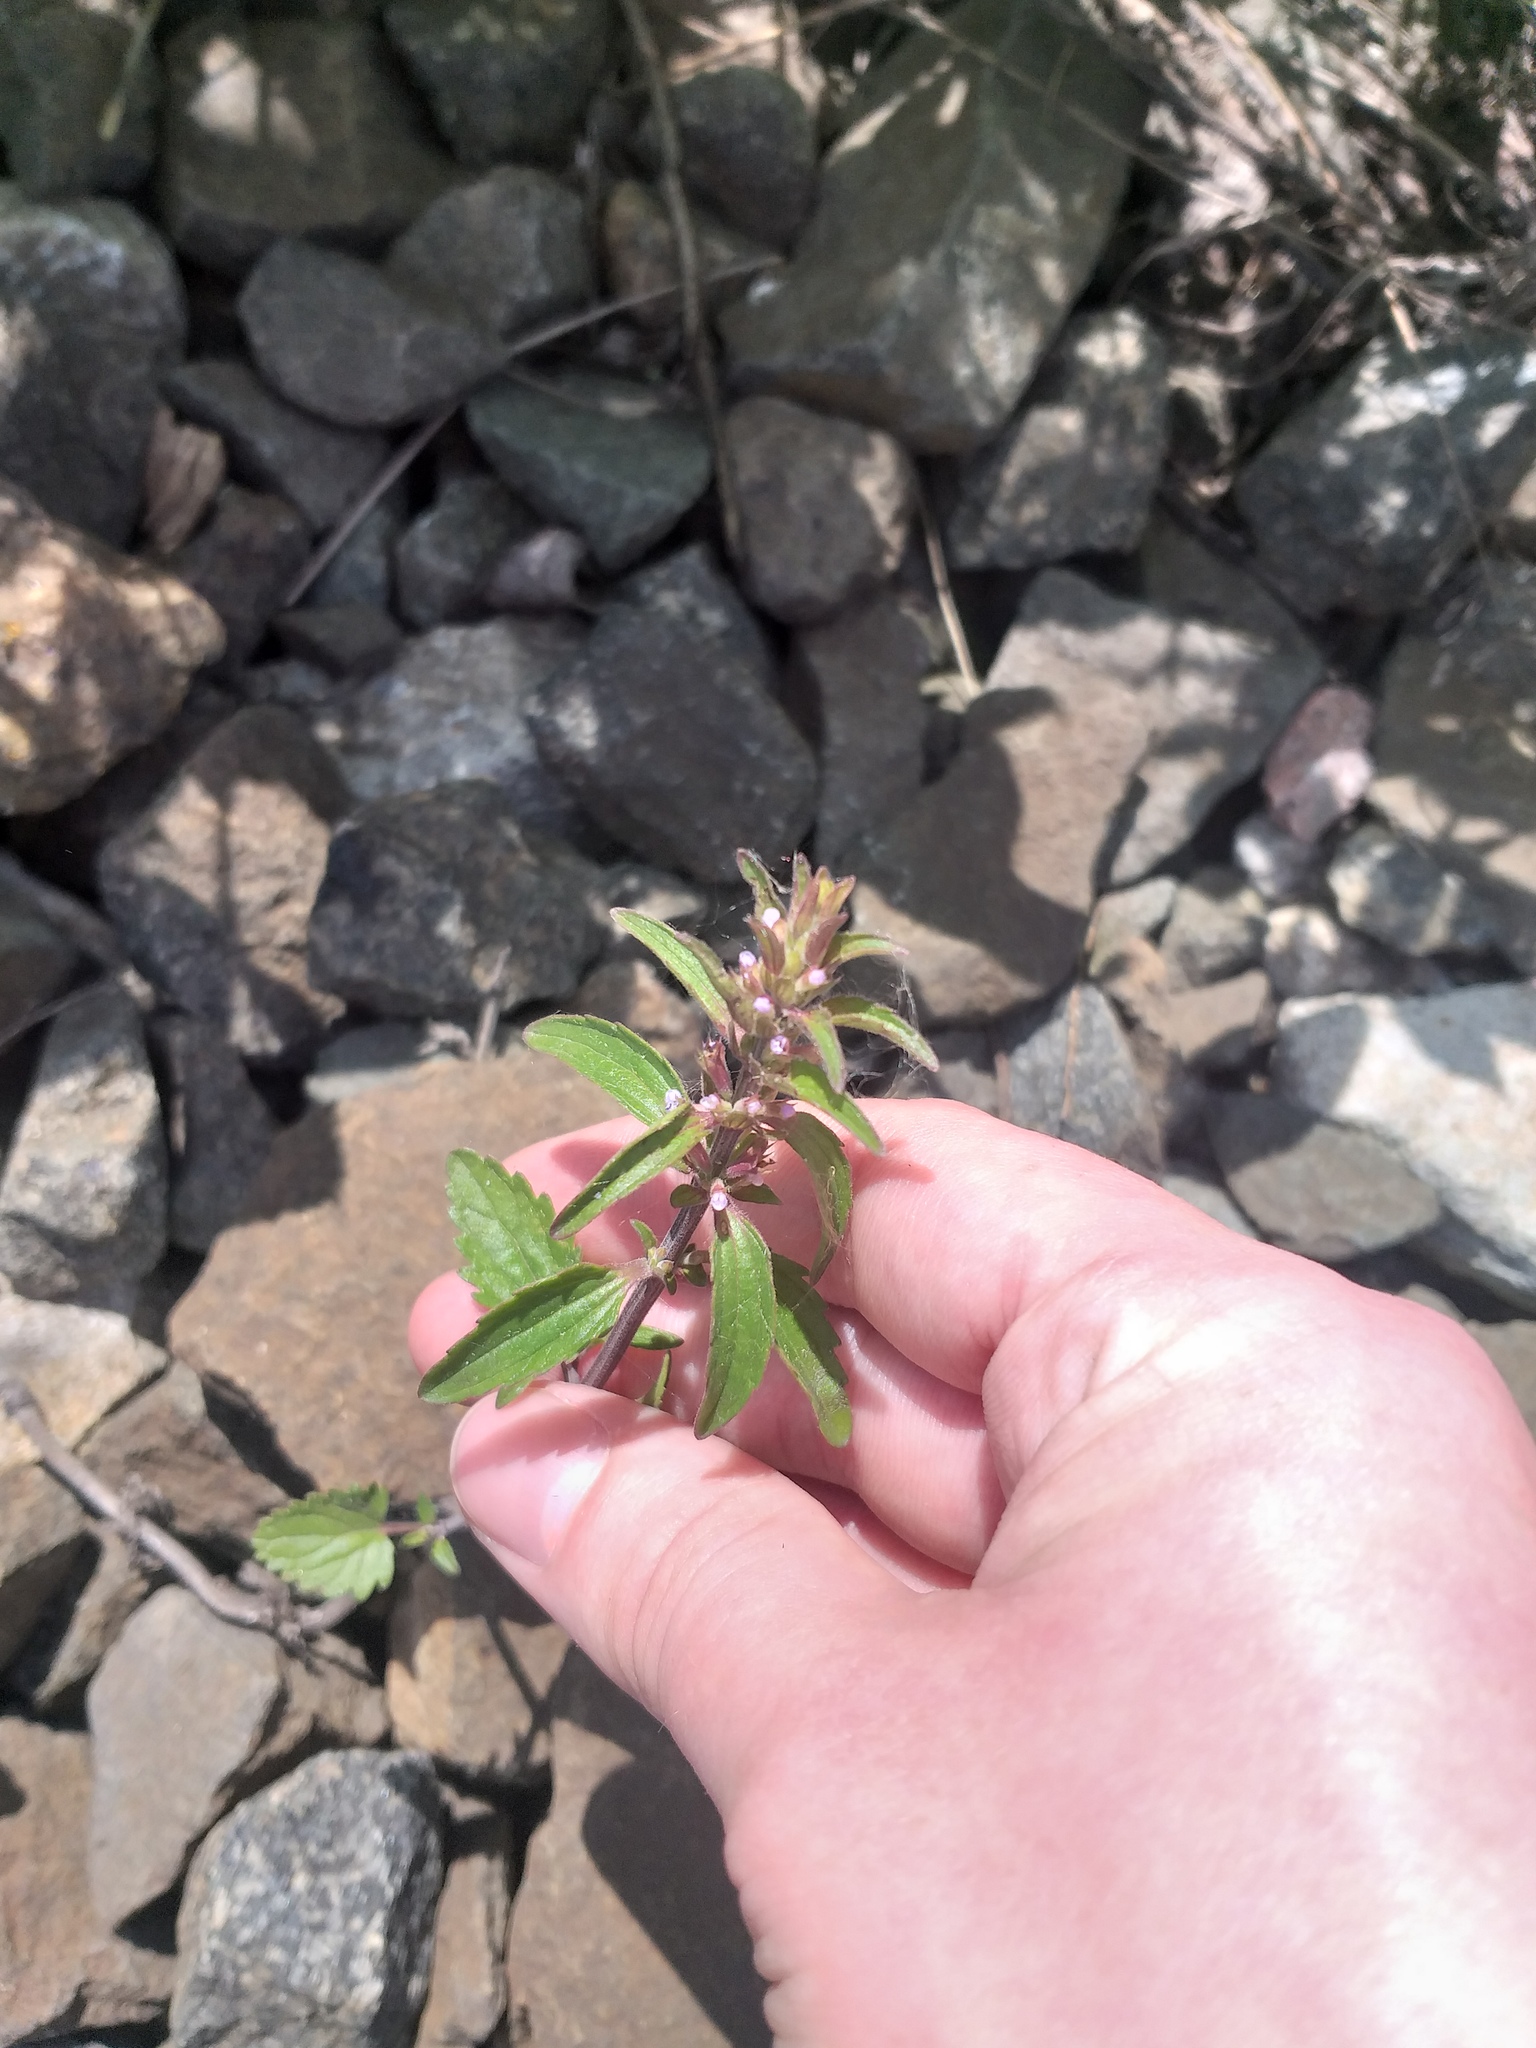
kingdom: Plantae
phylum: Tracheophyta
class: Magnoliopsida
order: Lamiales
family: Lamiaceae
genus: Dracocephalum
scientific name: Dracocephalum thymiflorum
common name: Thymeleaf dragonhead
